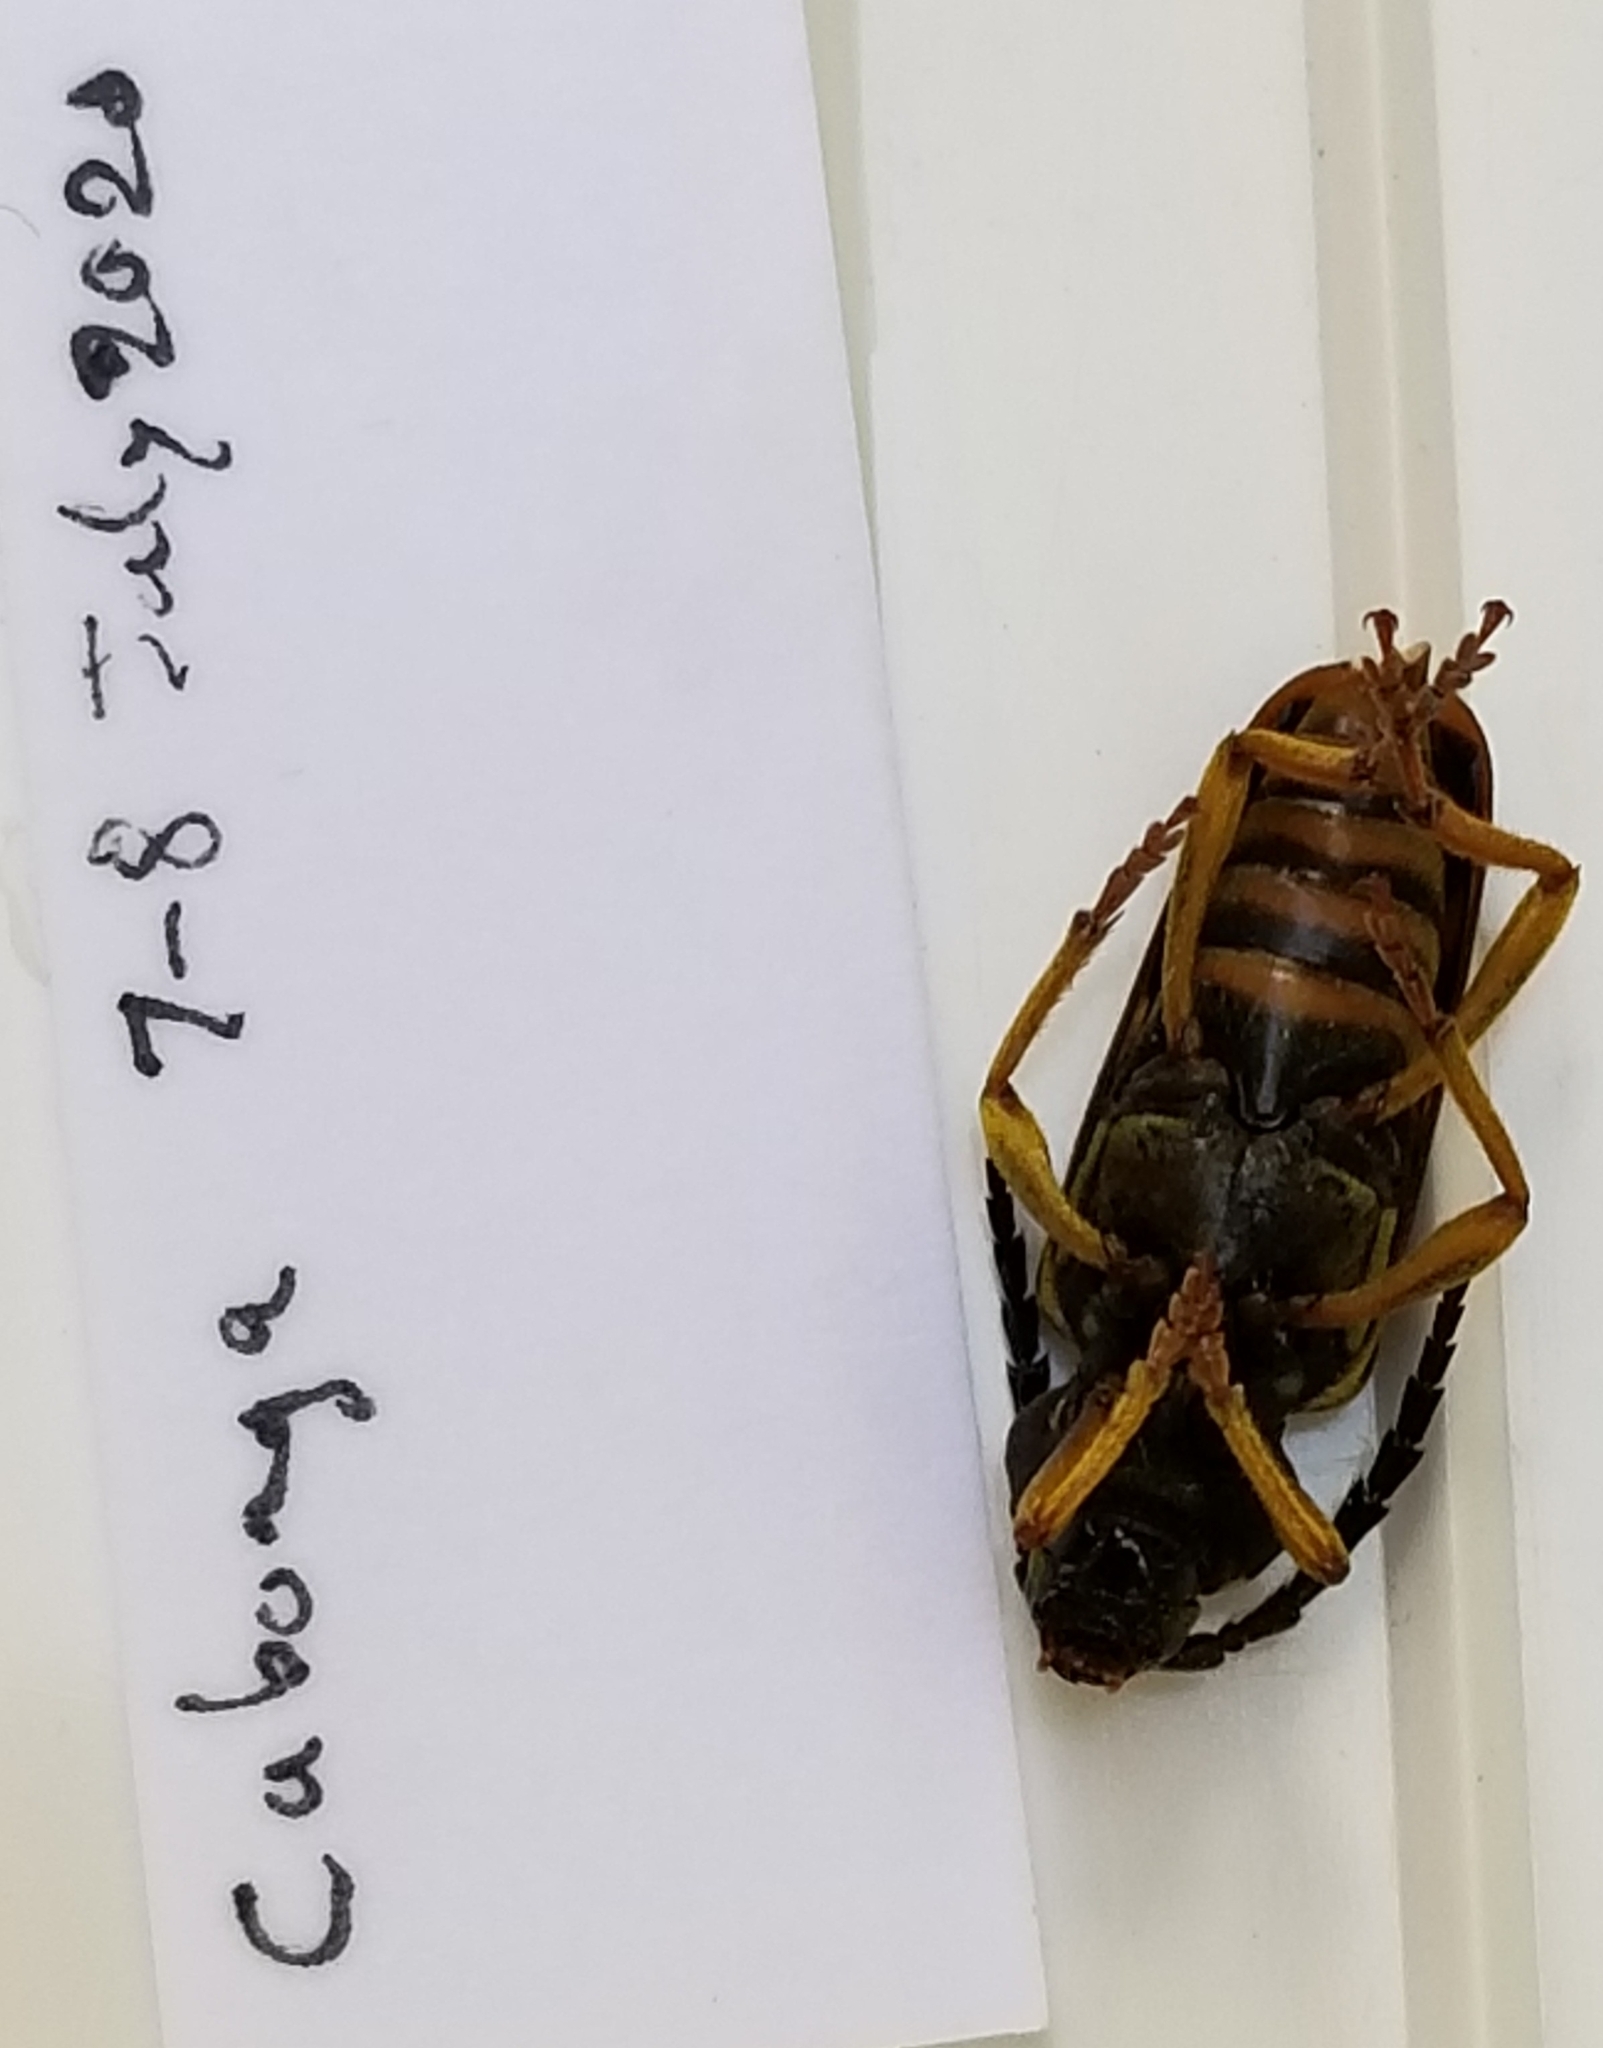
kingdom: Animalia
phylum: Arthropoda
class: Insecta
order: Coleoptera
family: Cerambycidae
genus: Glycobius
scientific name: Glycobius speciosus
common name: Sugar maple borer
